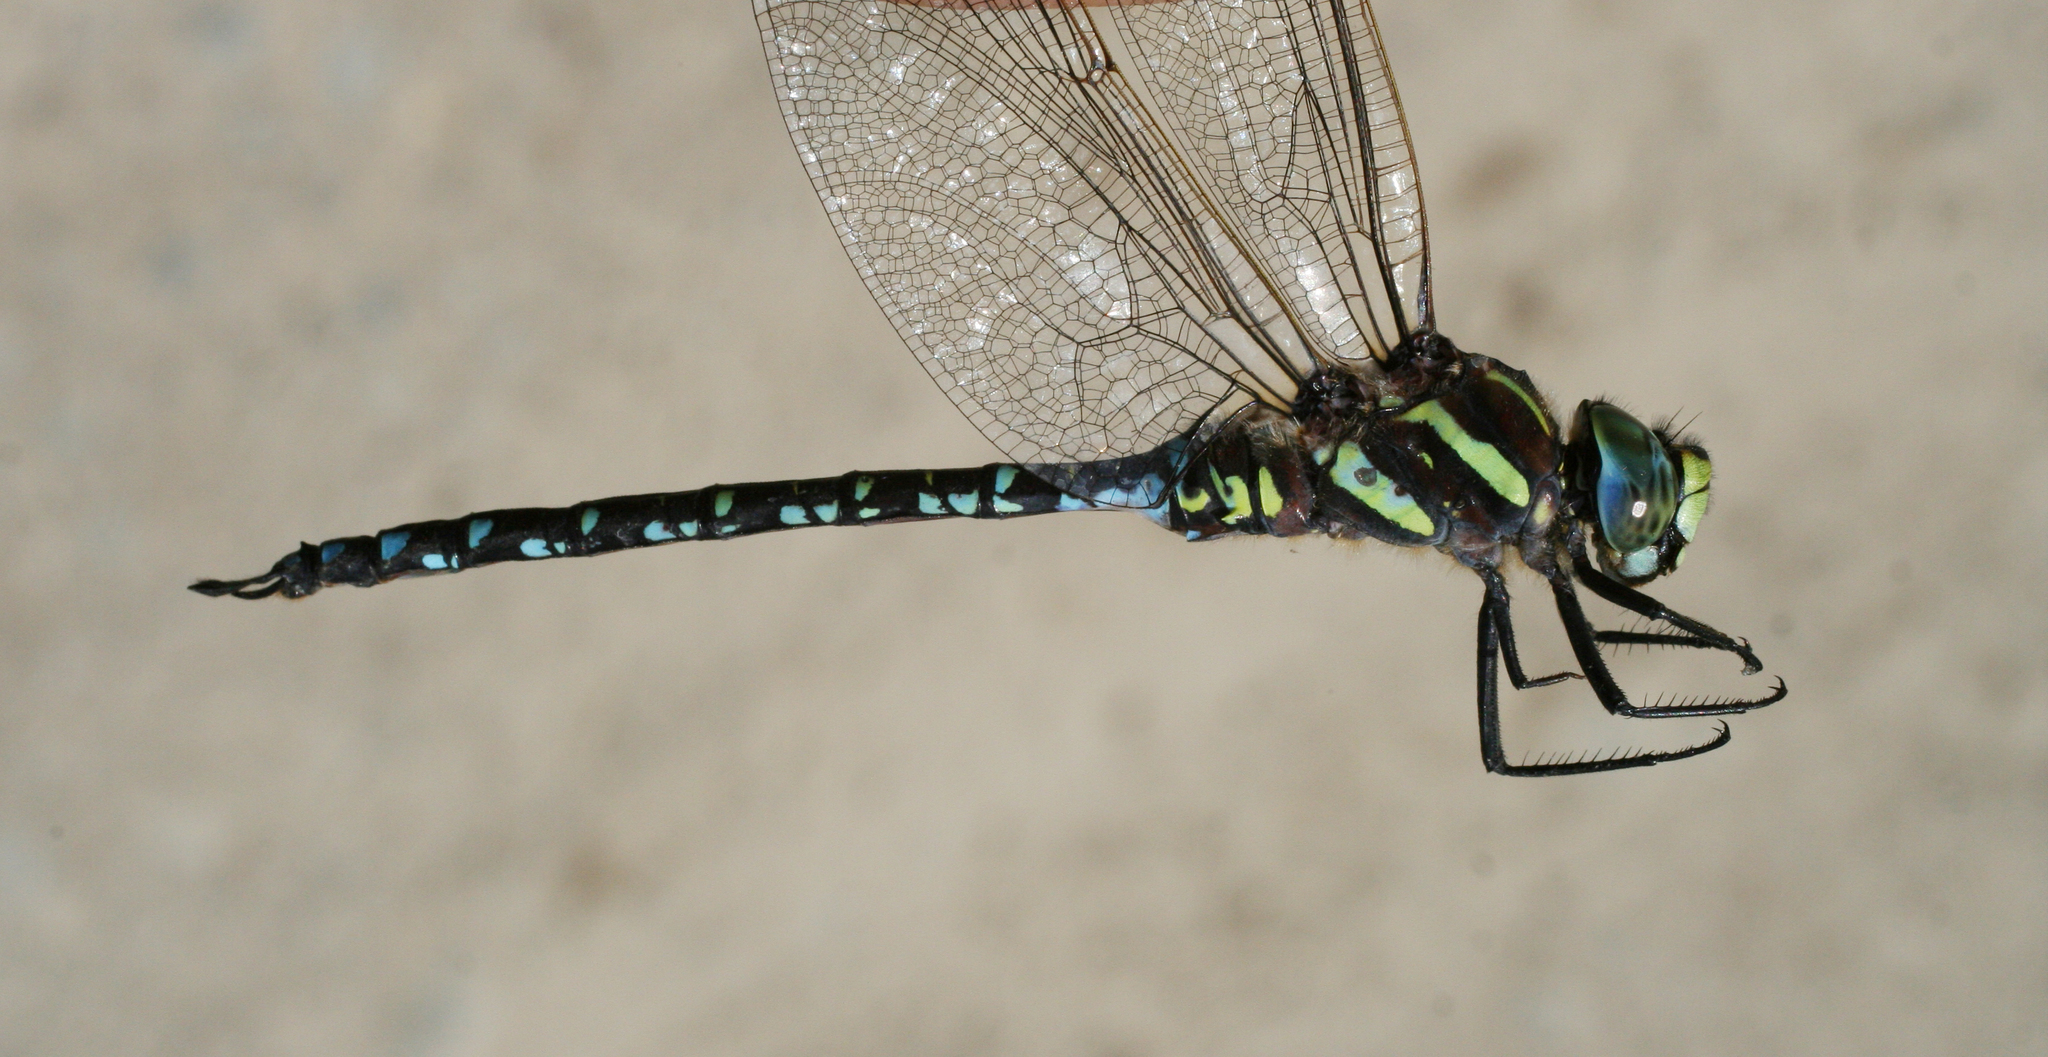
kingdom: Animalia
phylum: Arthropoda
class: Insecta
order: Odonata
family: Aeshnidae
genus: Aeshna
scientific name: Aeshna juncea
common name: Moorland hawker
